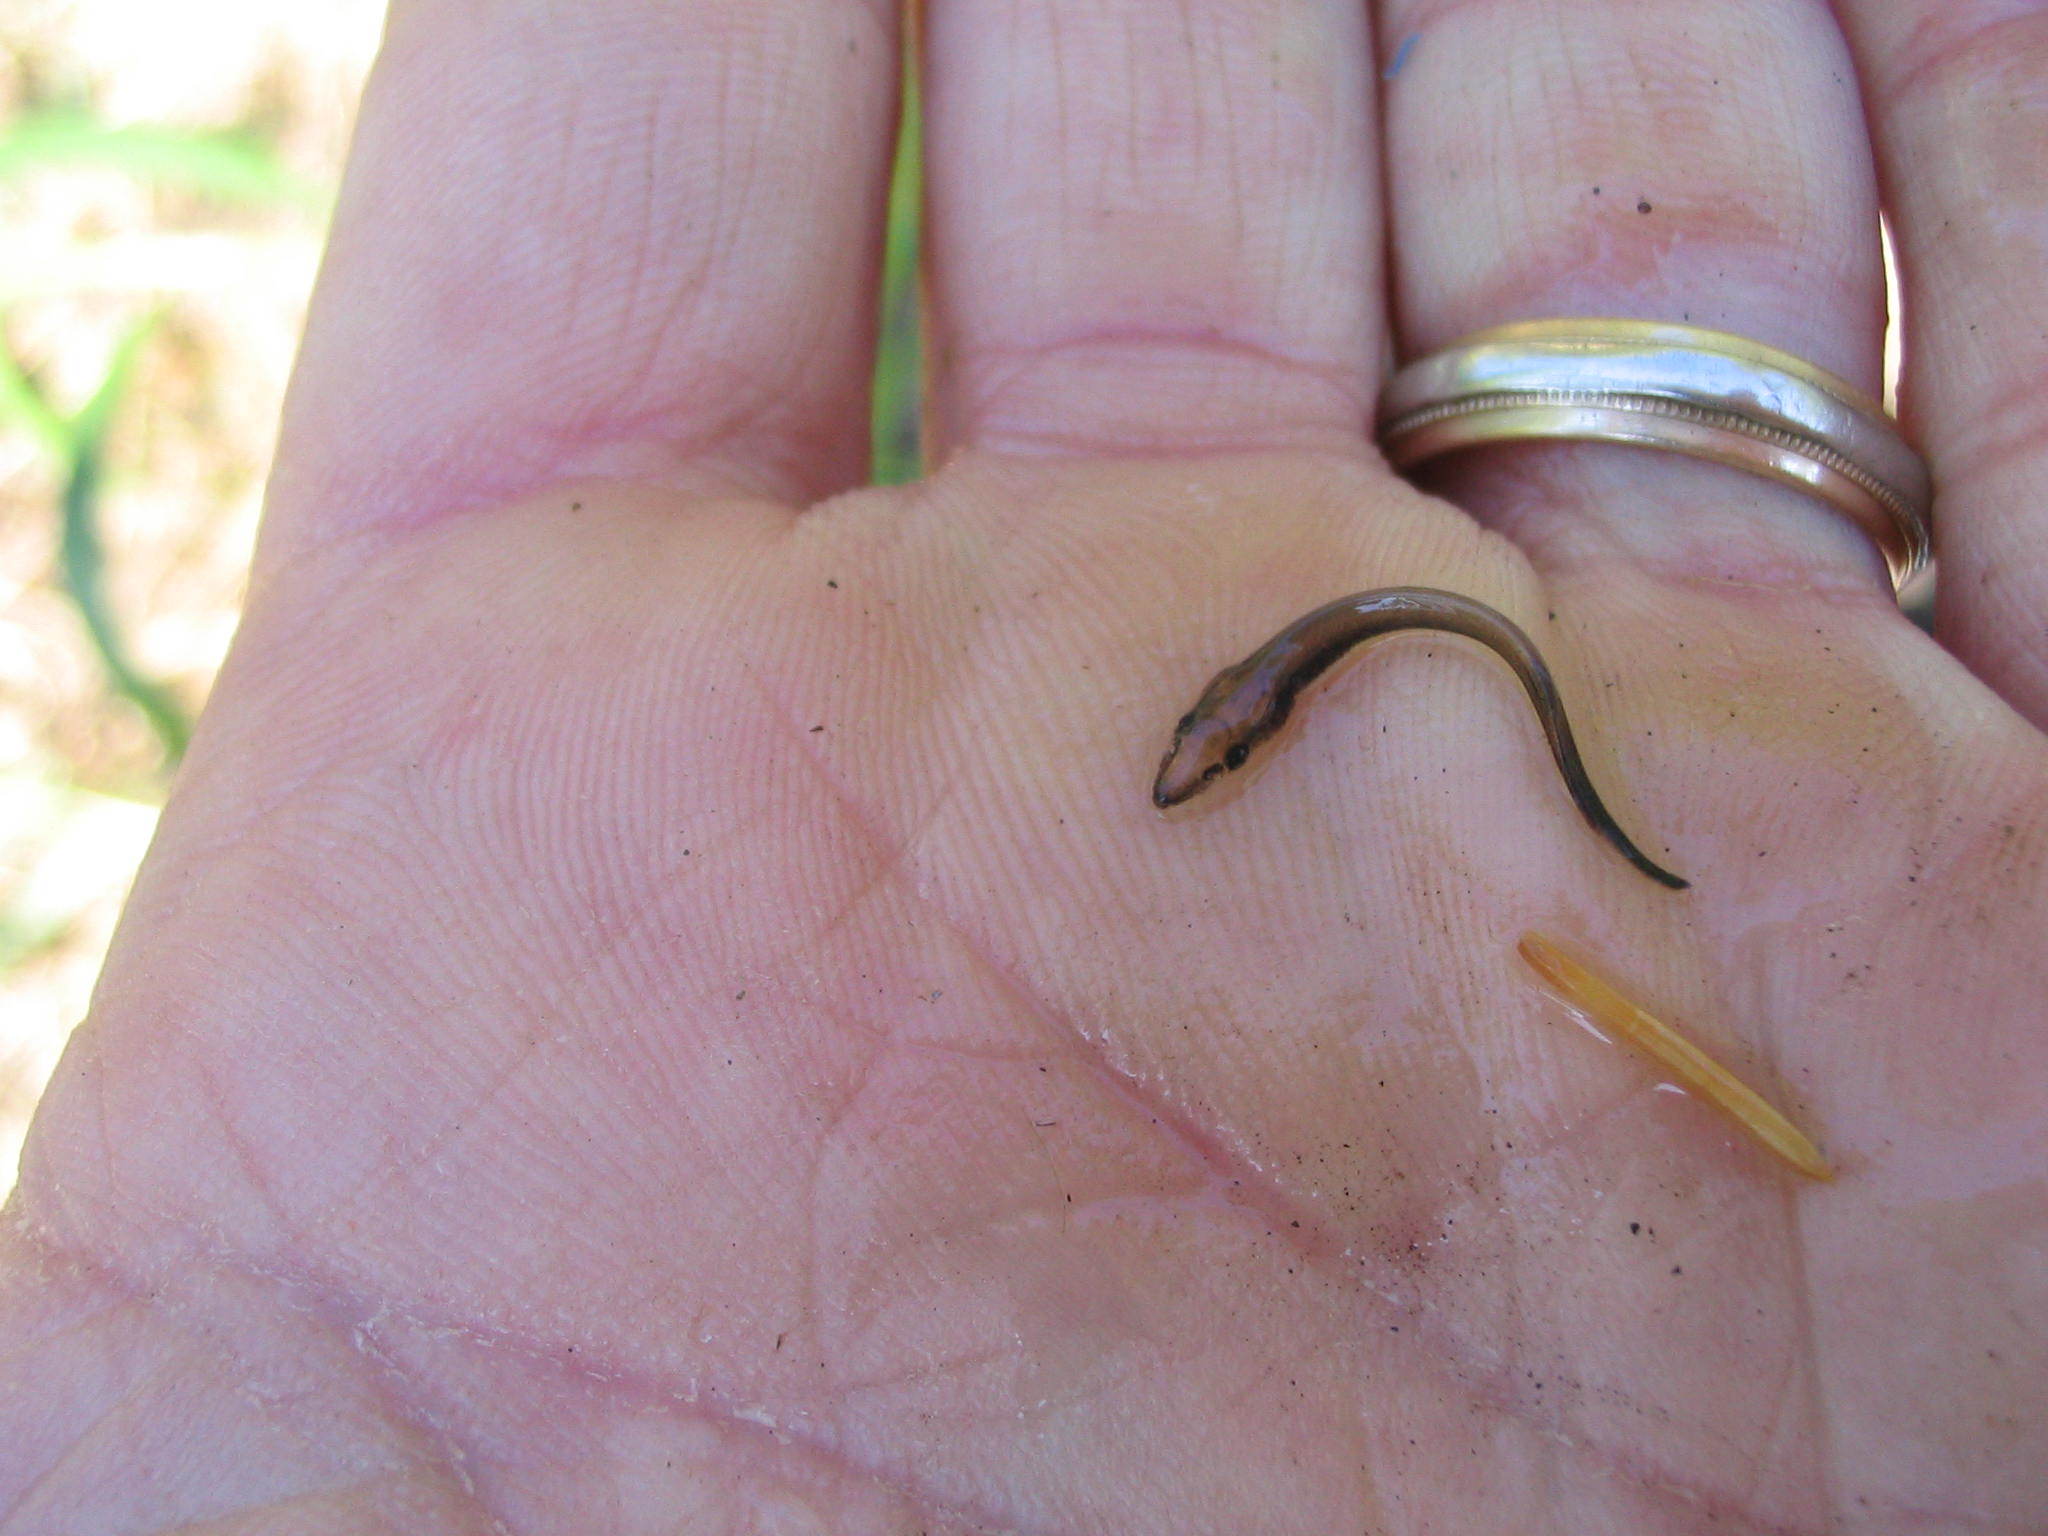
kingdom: Animalia
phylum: Chordata
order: Acipenseriformes
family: Acipenseridae
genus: Acipenser
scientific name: Acipenser fulvescens
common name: Lake sturgeon
